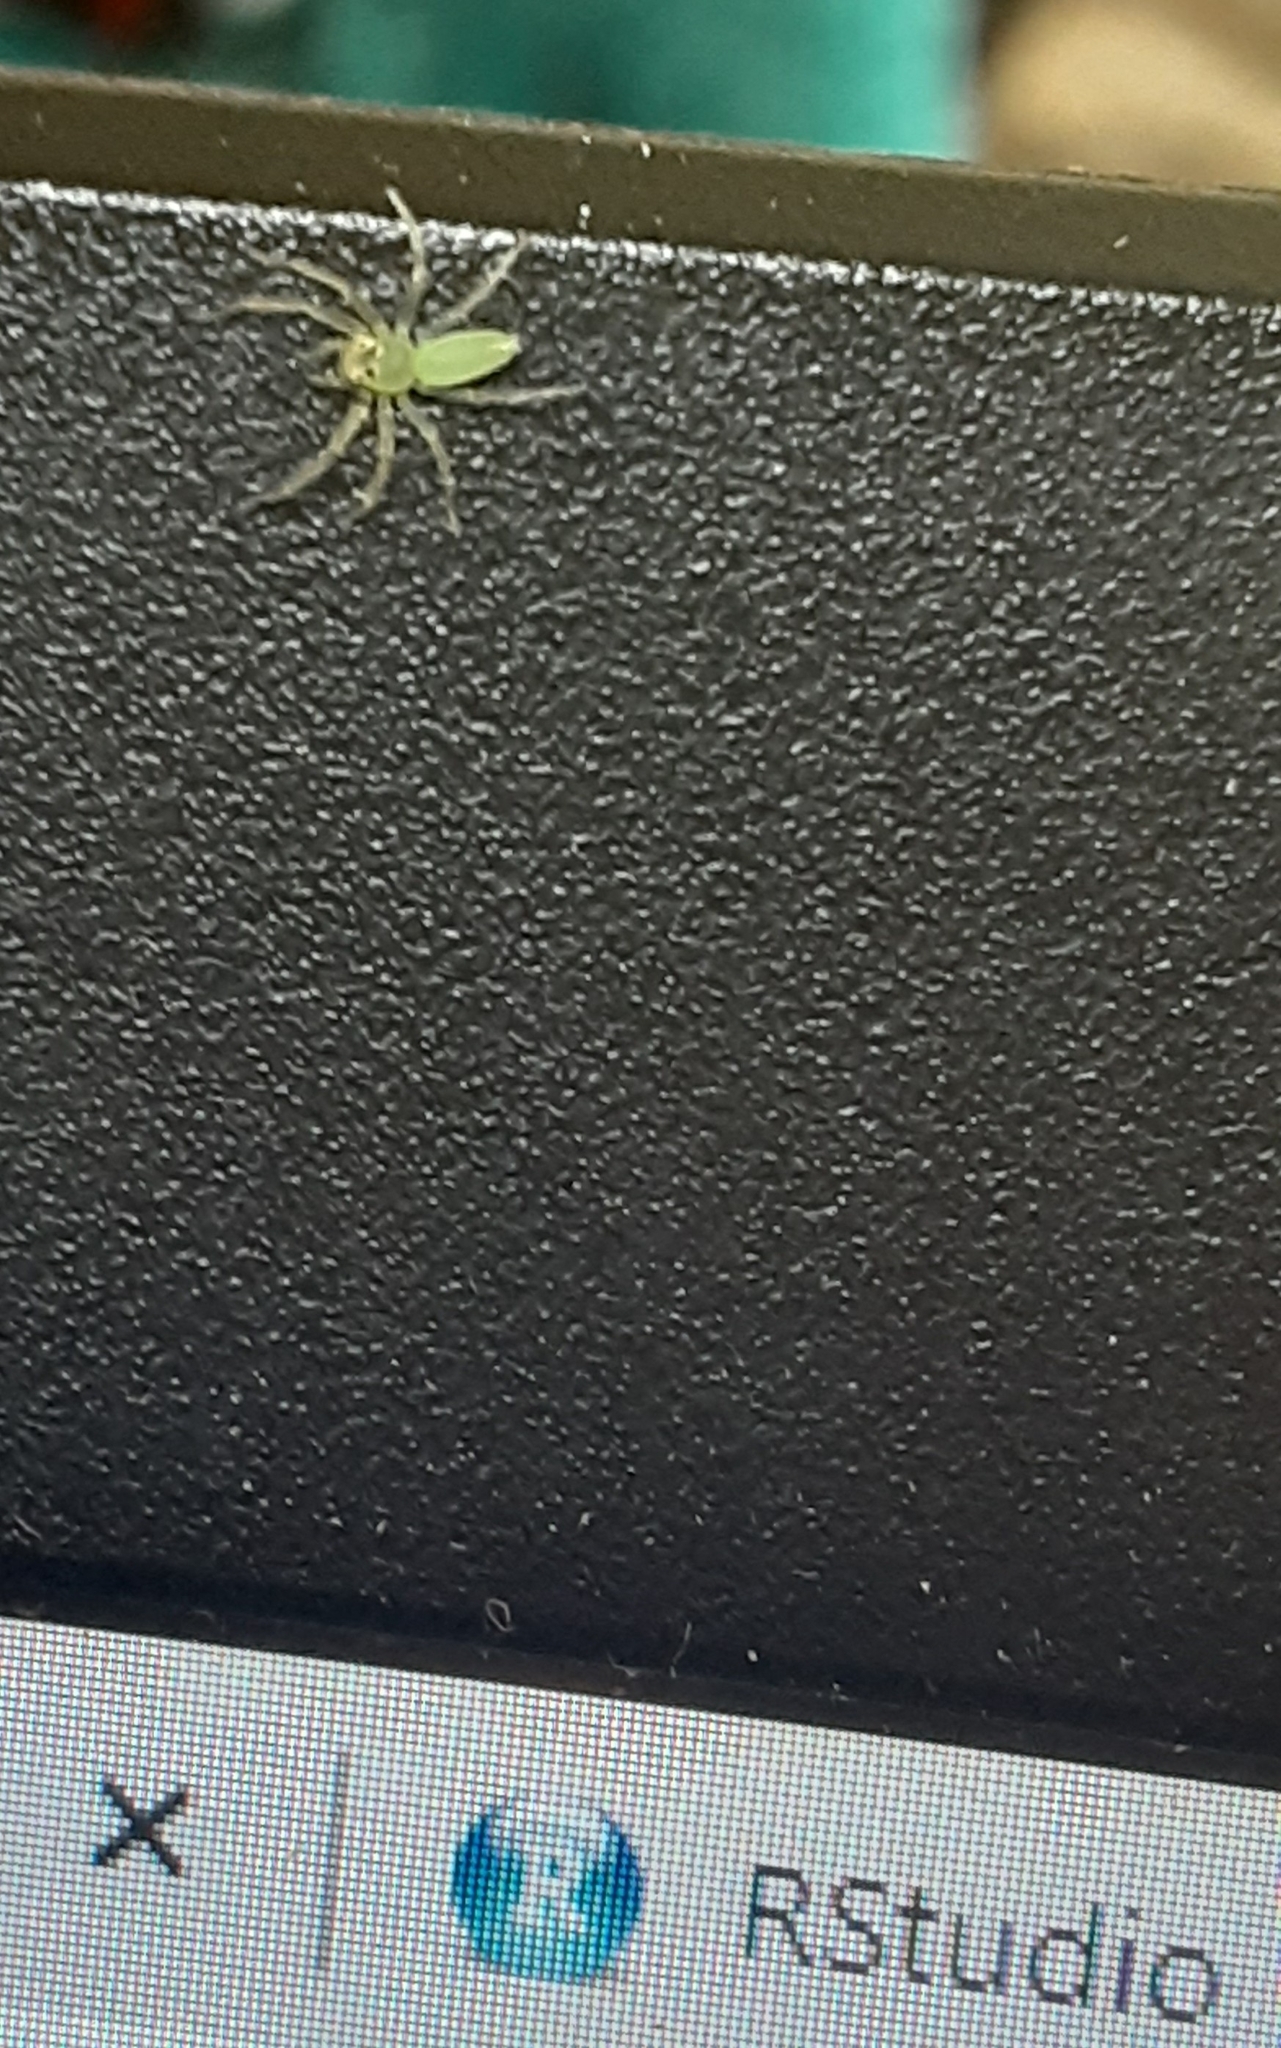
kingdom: Animalia
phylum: Arthropoda
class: Arachnida
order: Araneae
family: Salticidae
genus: Lyssomanes
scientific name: Lyssomanes viridis
